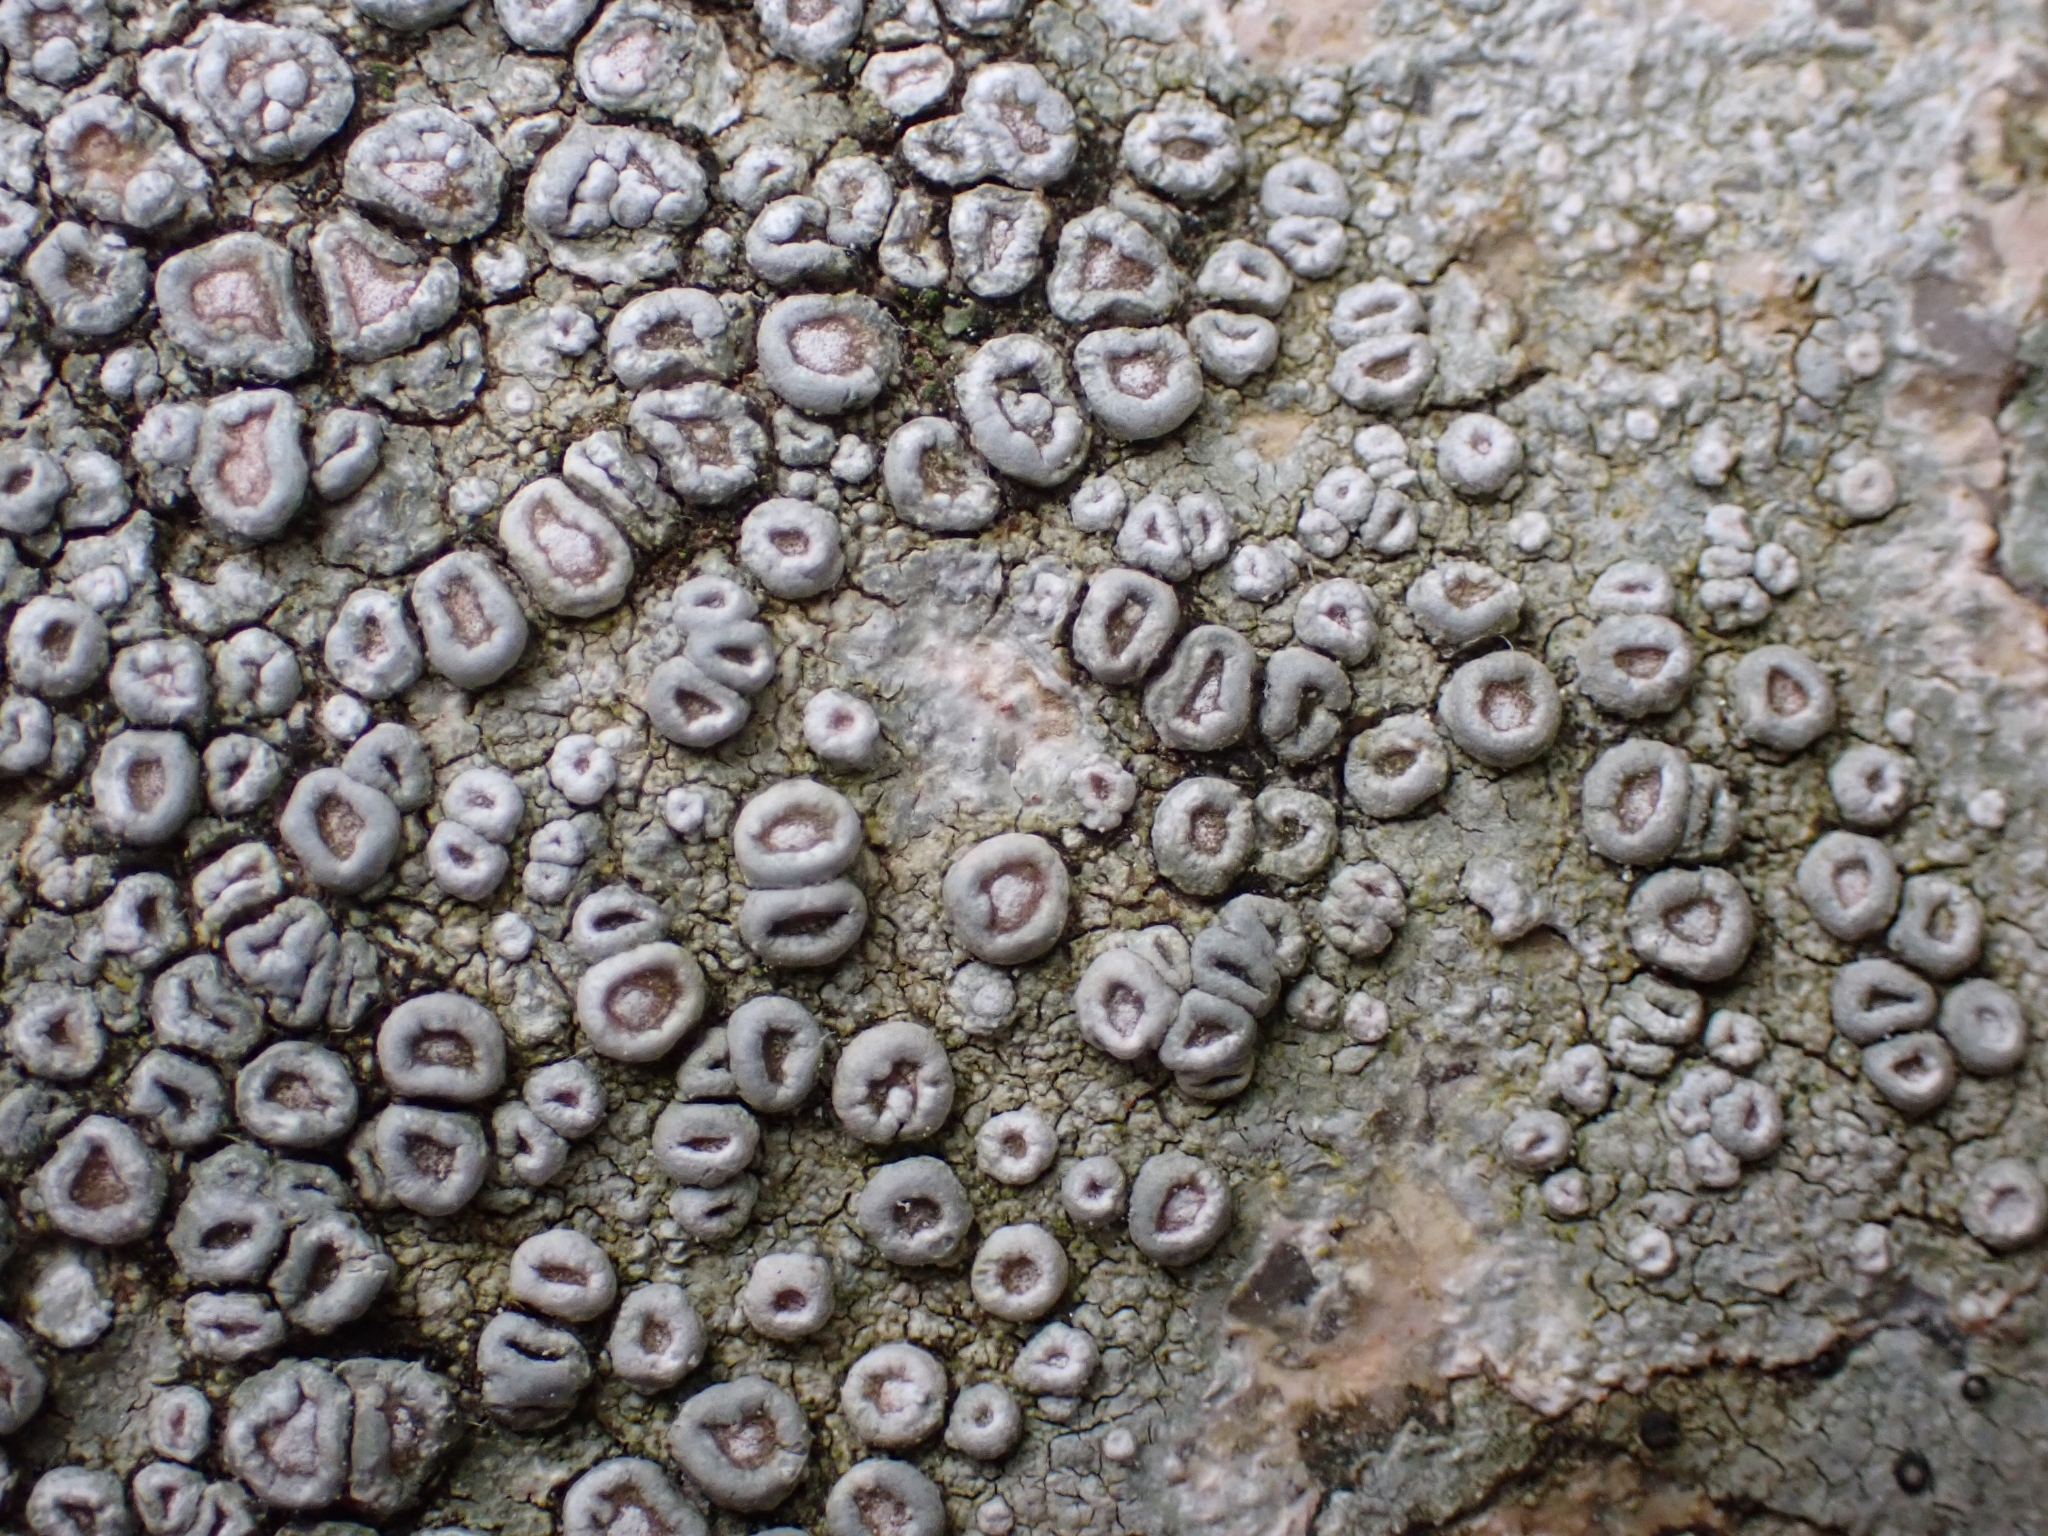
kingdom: Fungi
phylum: Ascomycota
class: Lecanoromycetes
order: Pertusariales
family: Ochrolechiaceae
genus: Ochrolechia
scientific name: Ochrolechia parella
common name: Crab's eye lichen
